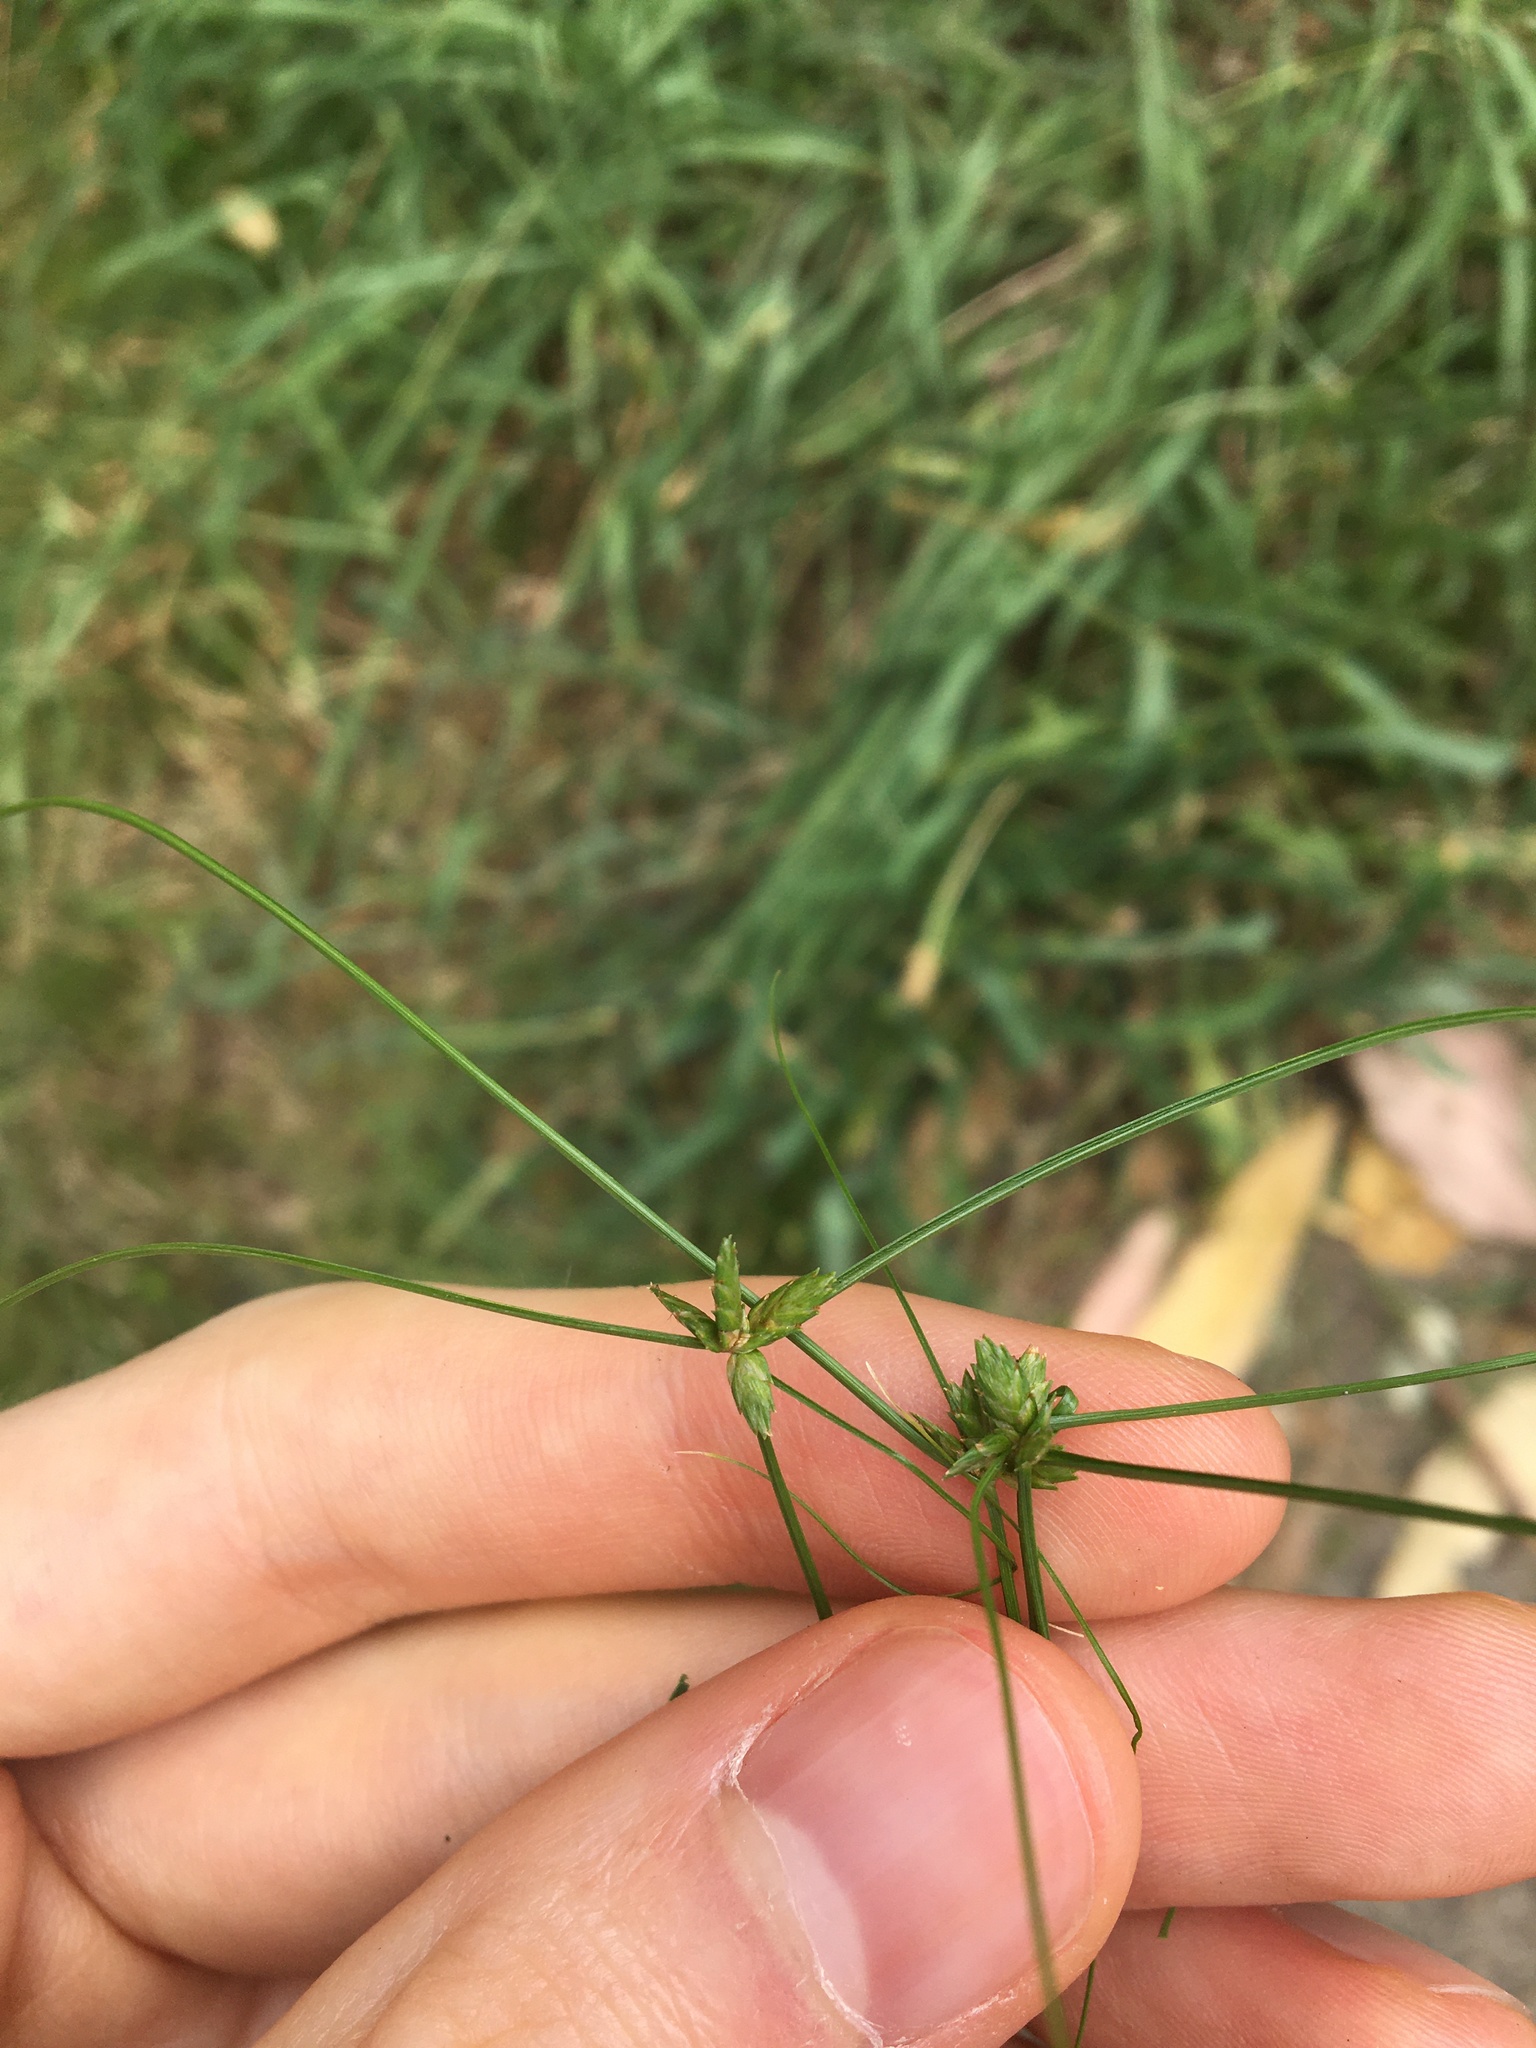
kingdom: Plantae
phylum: Tracheophyta
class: Liliopsida
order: Poales
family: Cyperaceae
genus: Cyperus
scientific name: Cyperus gracilis
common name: Slimjim flatsedge
